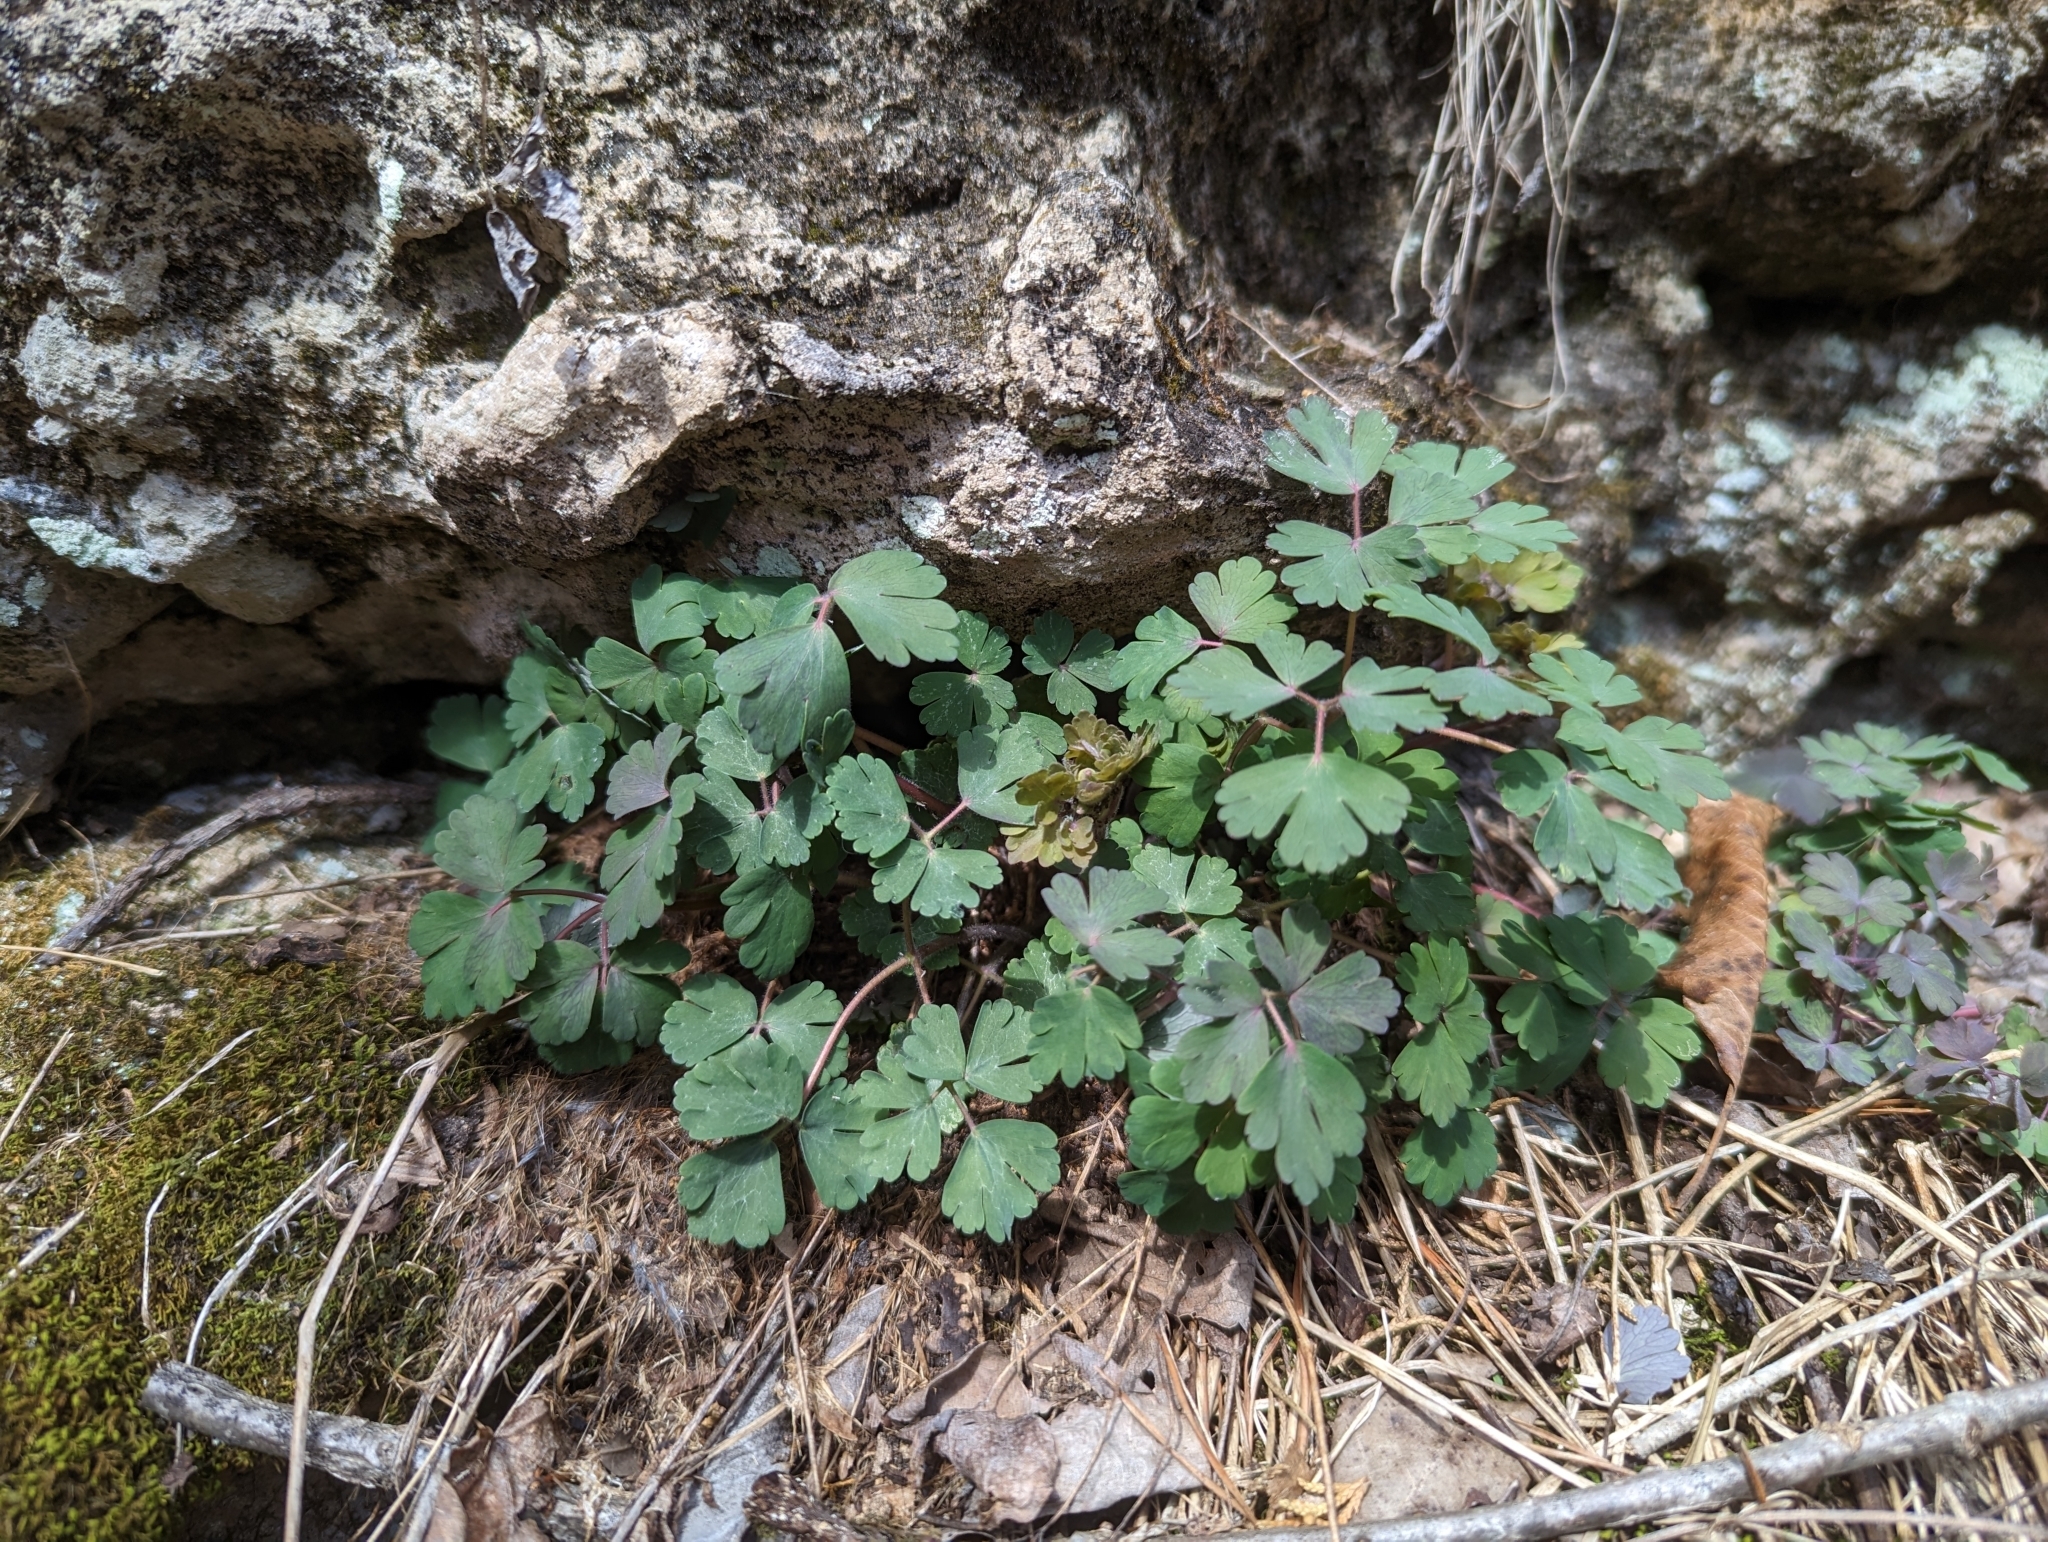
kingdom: Plantae
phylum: Tracheophyta
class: Magnoliopsida
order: Ranunculales
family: Ranunculaceae
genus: Aquilegia
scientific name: Aquilegia canadensis
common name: American columbine
